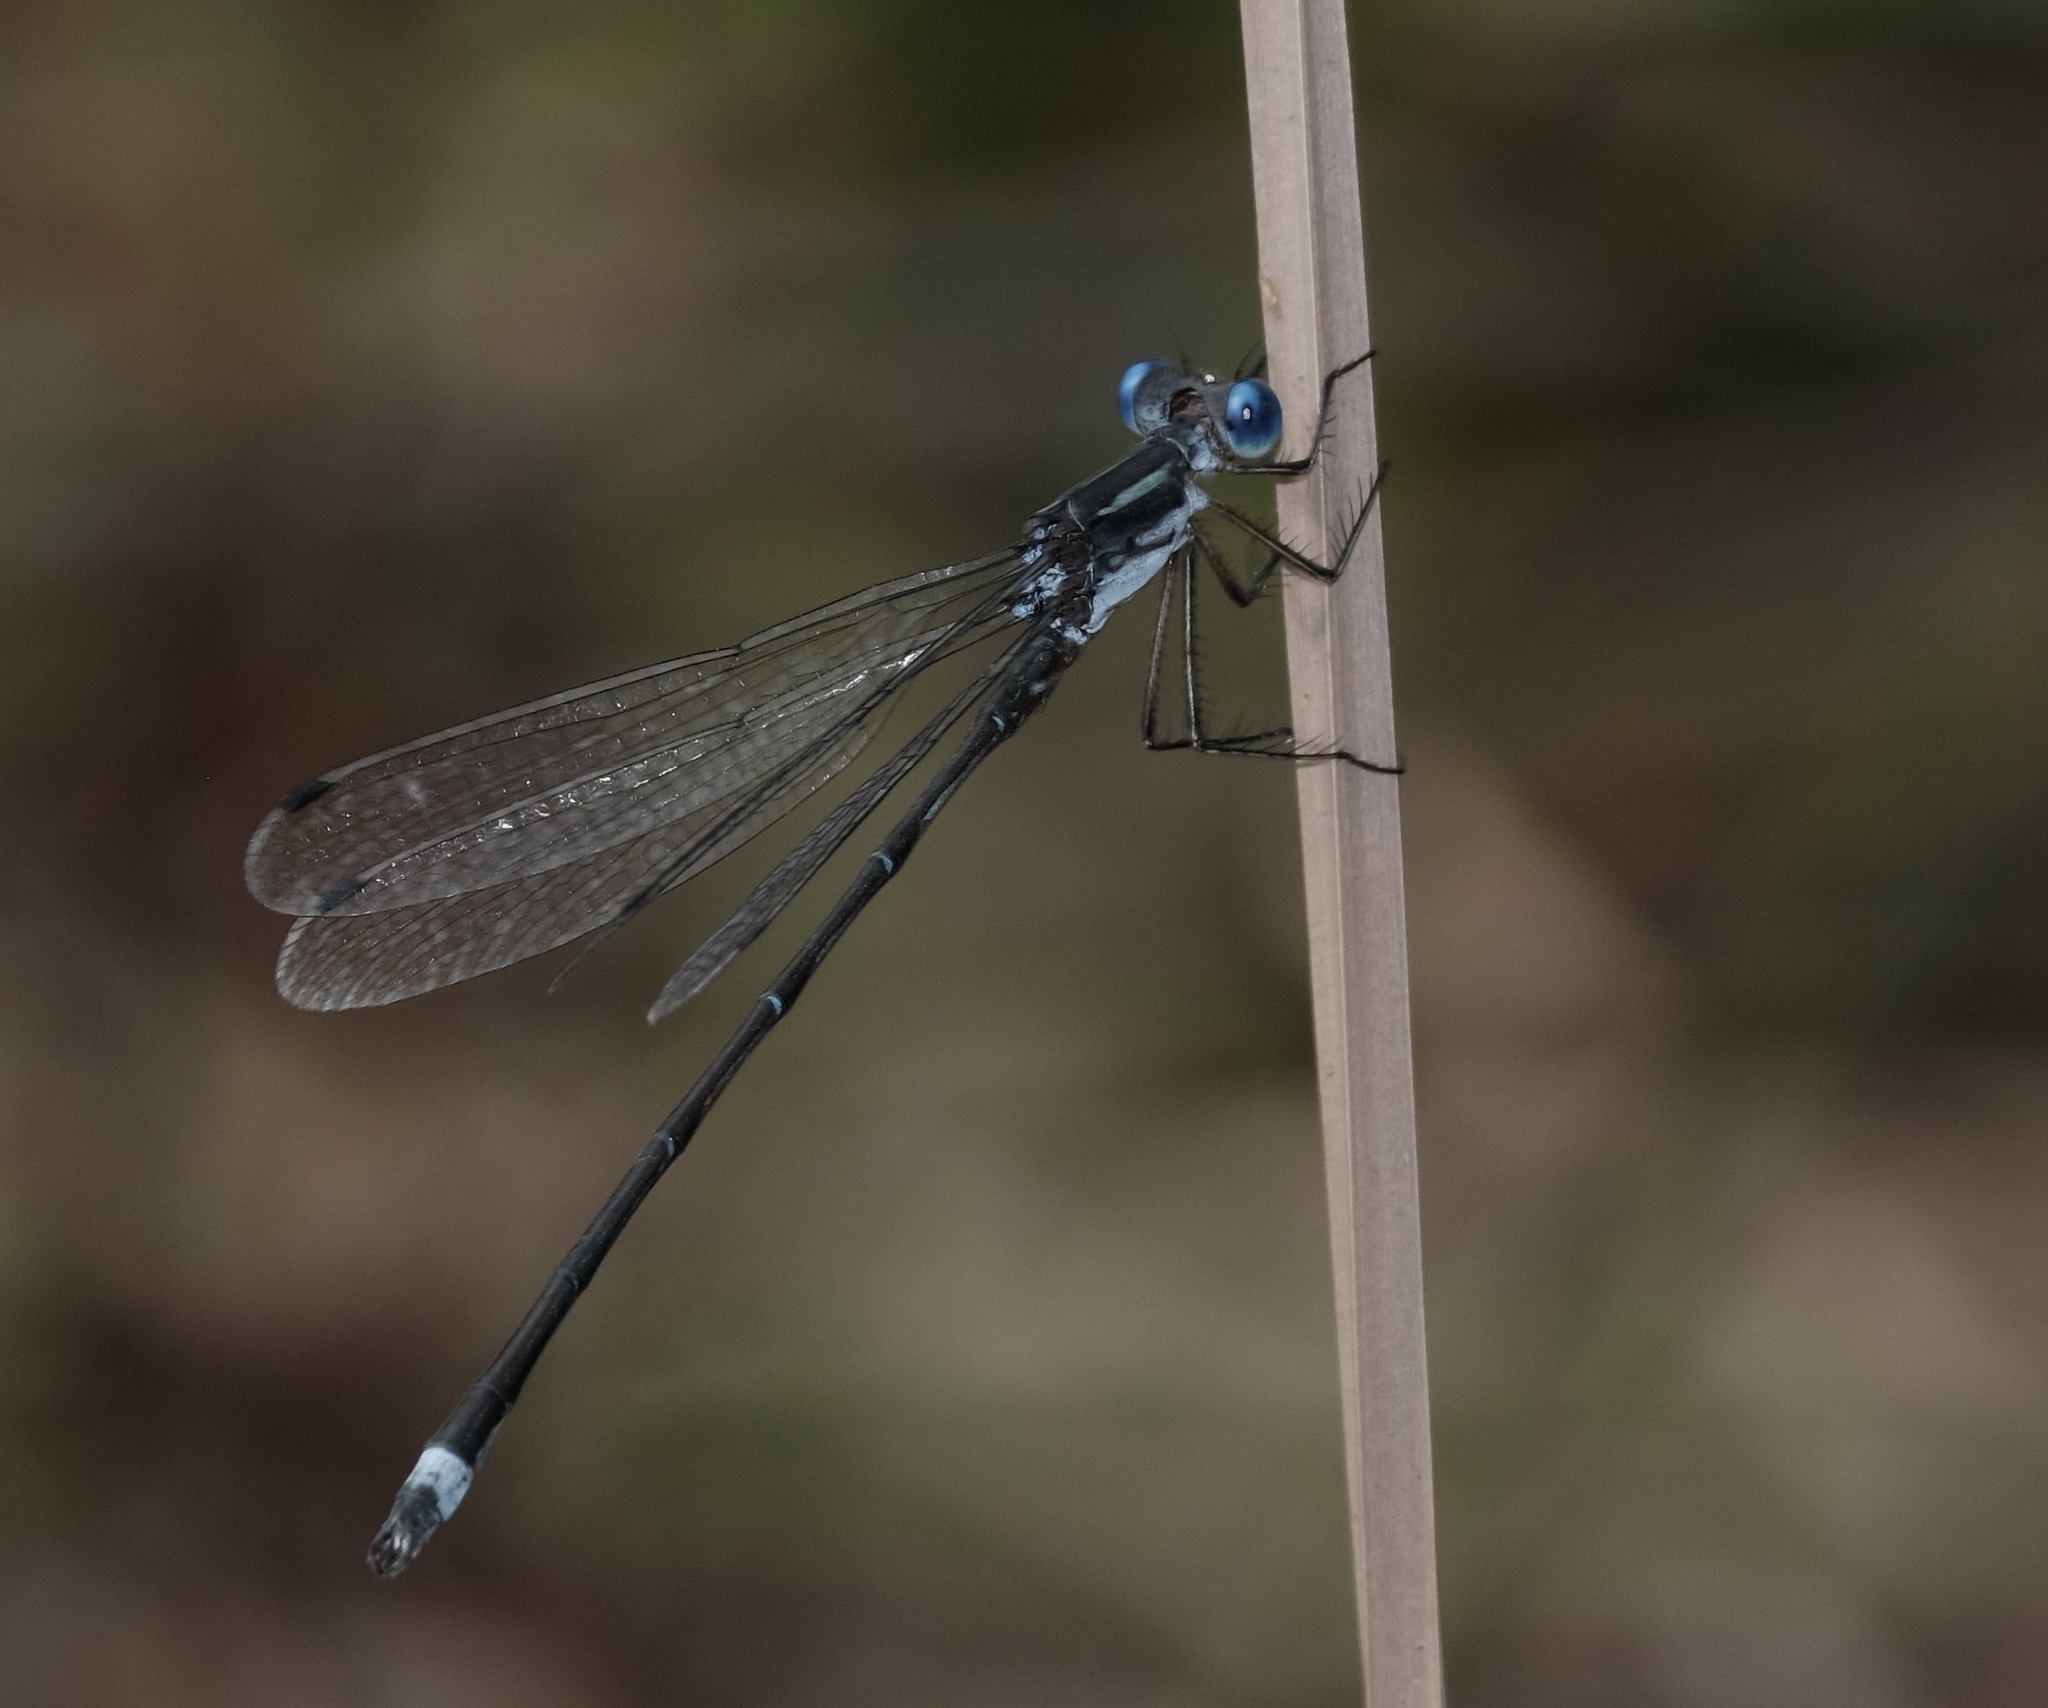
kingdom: Animalia
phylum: Arthropoda
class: Insecta
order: Odonata
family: Lestidae
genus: Lestes
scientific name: Lestes australis
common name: Southern spreadwing
